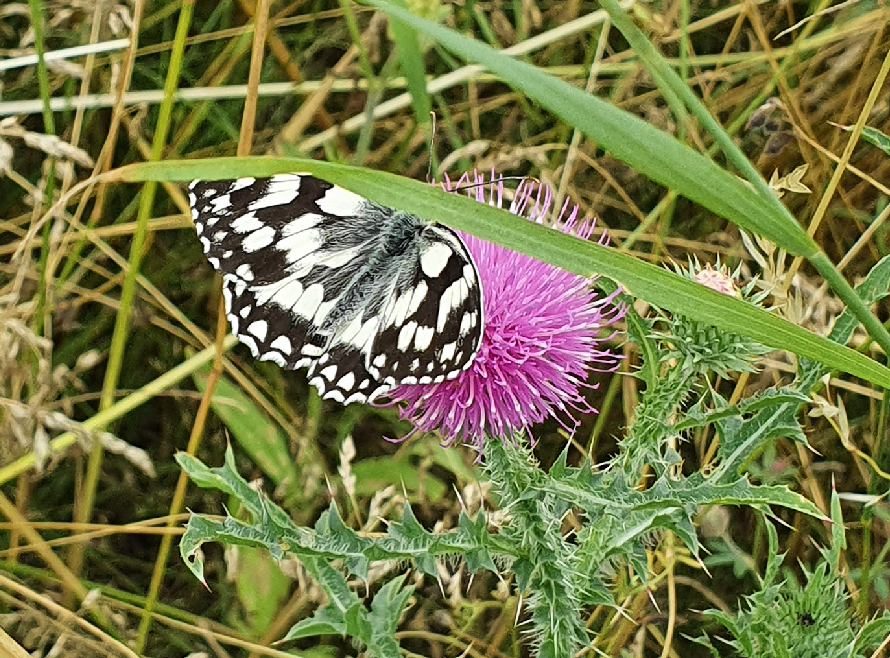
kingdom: Animalia
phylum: Arthropoda
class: Insecta
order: Lepidoptera
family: Nymphalidae
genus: Melanargia
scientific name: Melanargia galathea
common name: Marbled white
